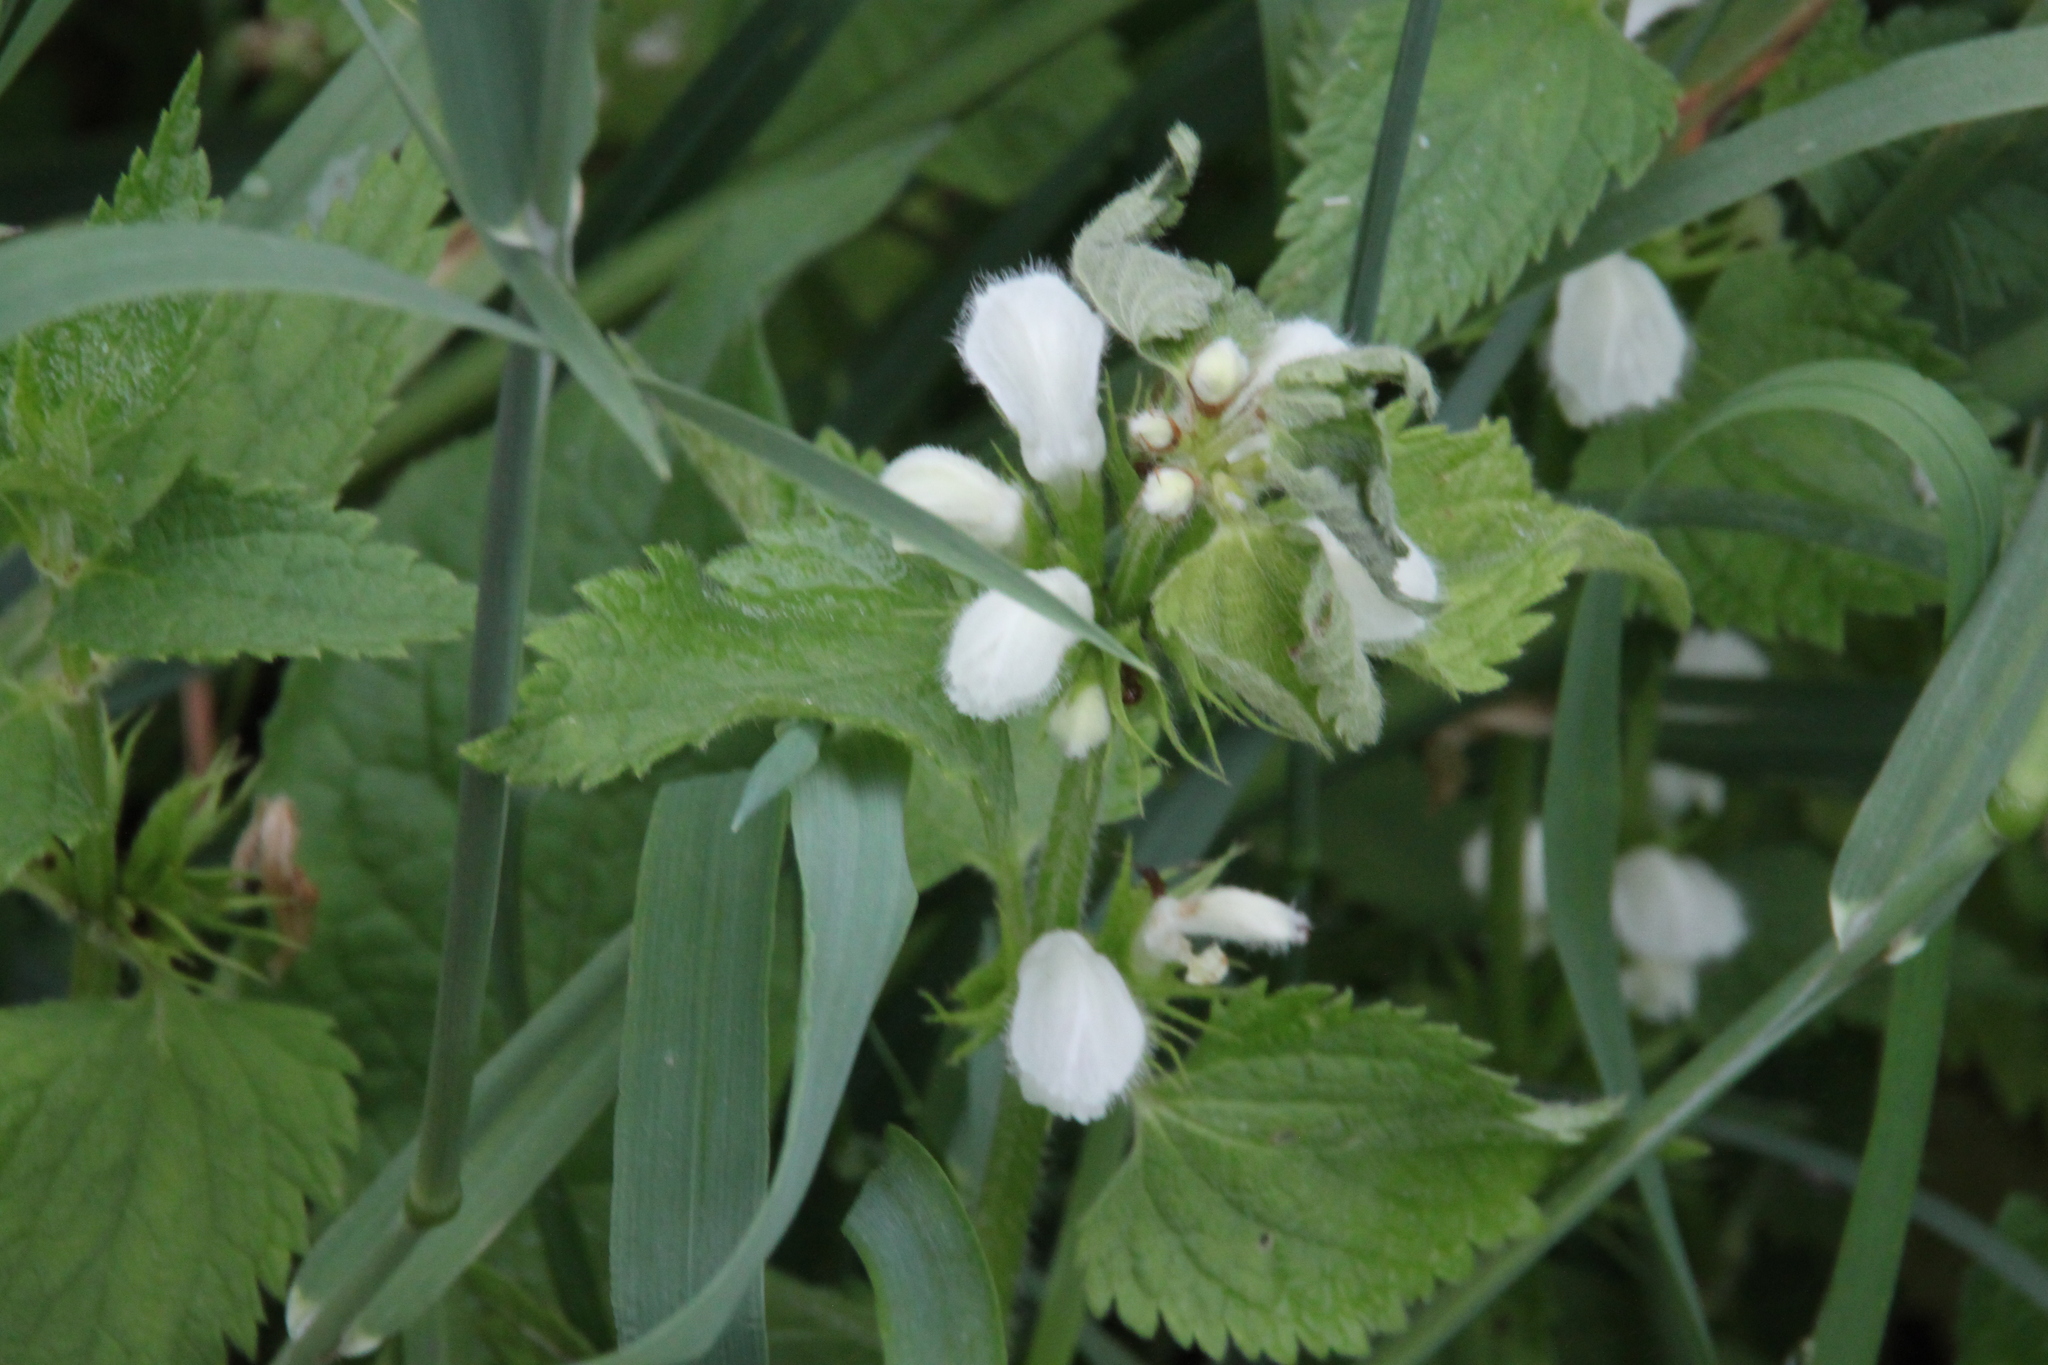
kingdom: Plantae
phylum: Tracheophyta
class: Magnoliopsida
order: Lamiales
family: Lamiaceae
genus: Lamium
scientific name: Lamium album
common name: White dead-nettle
